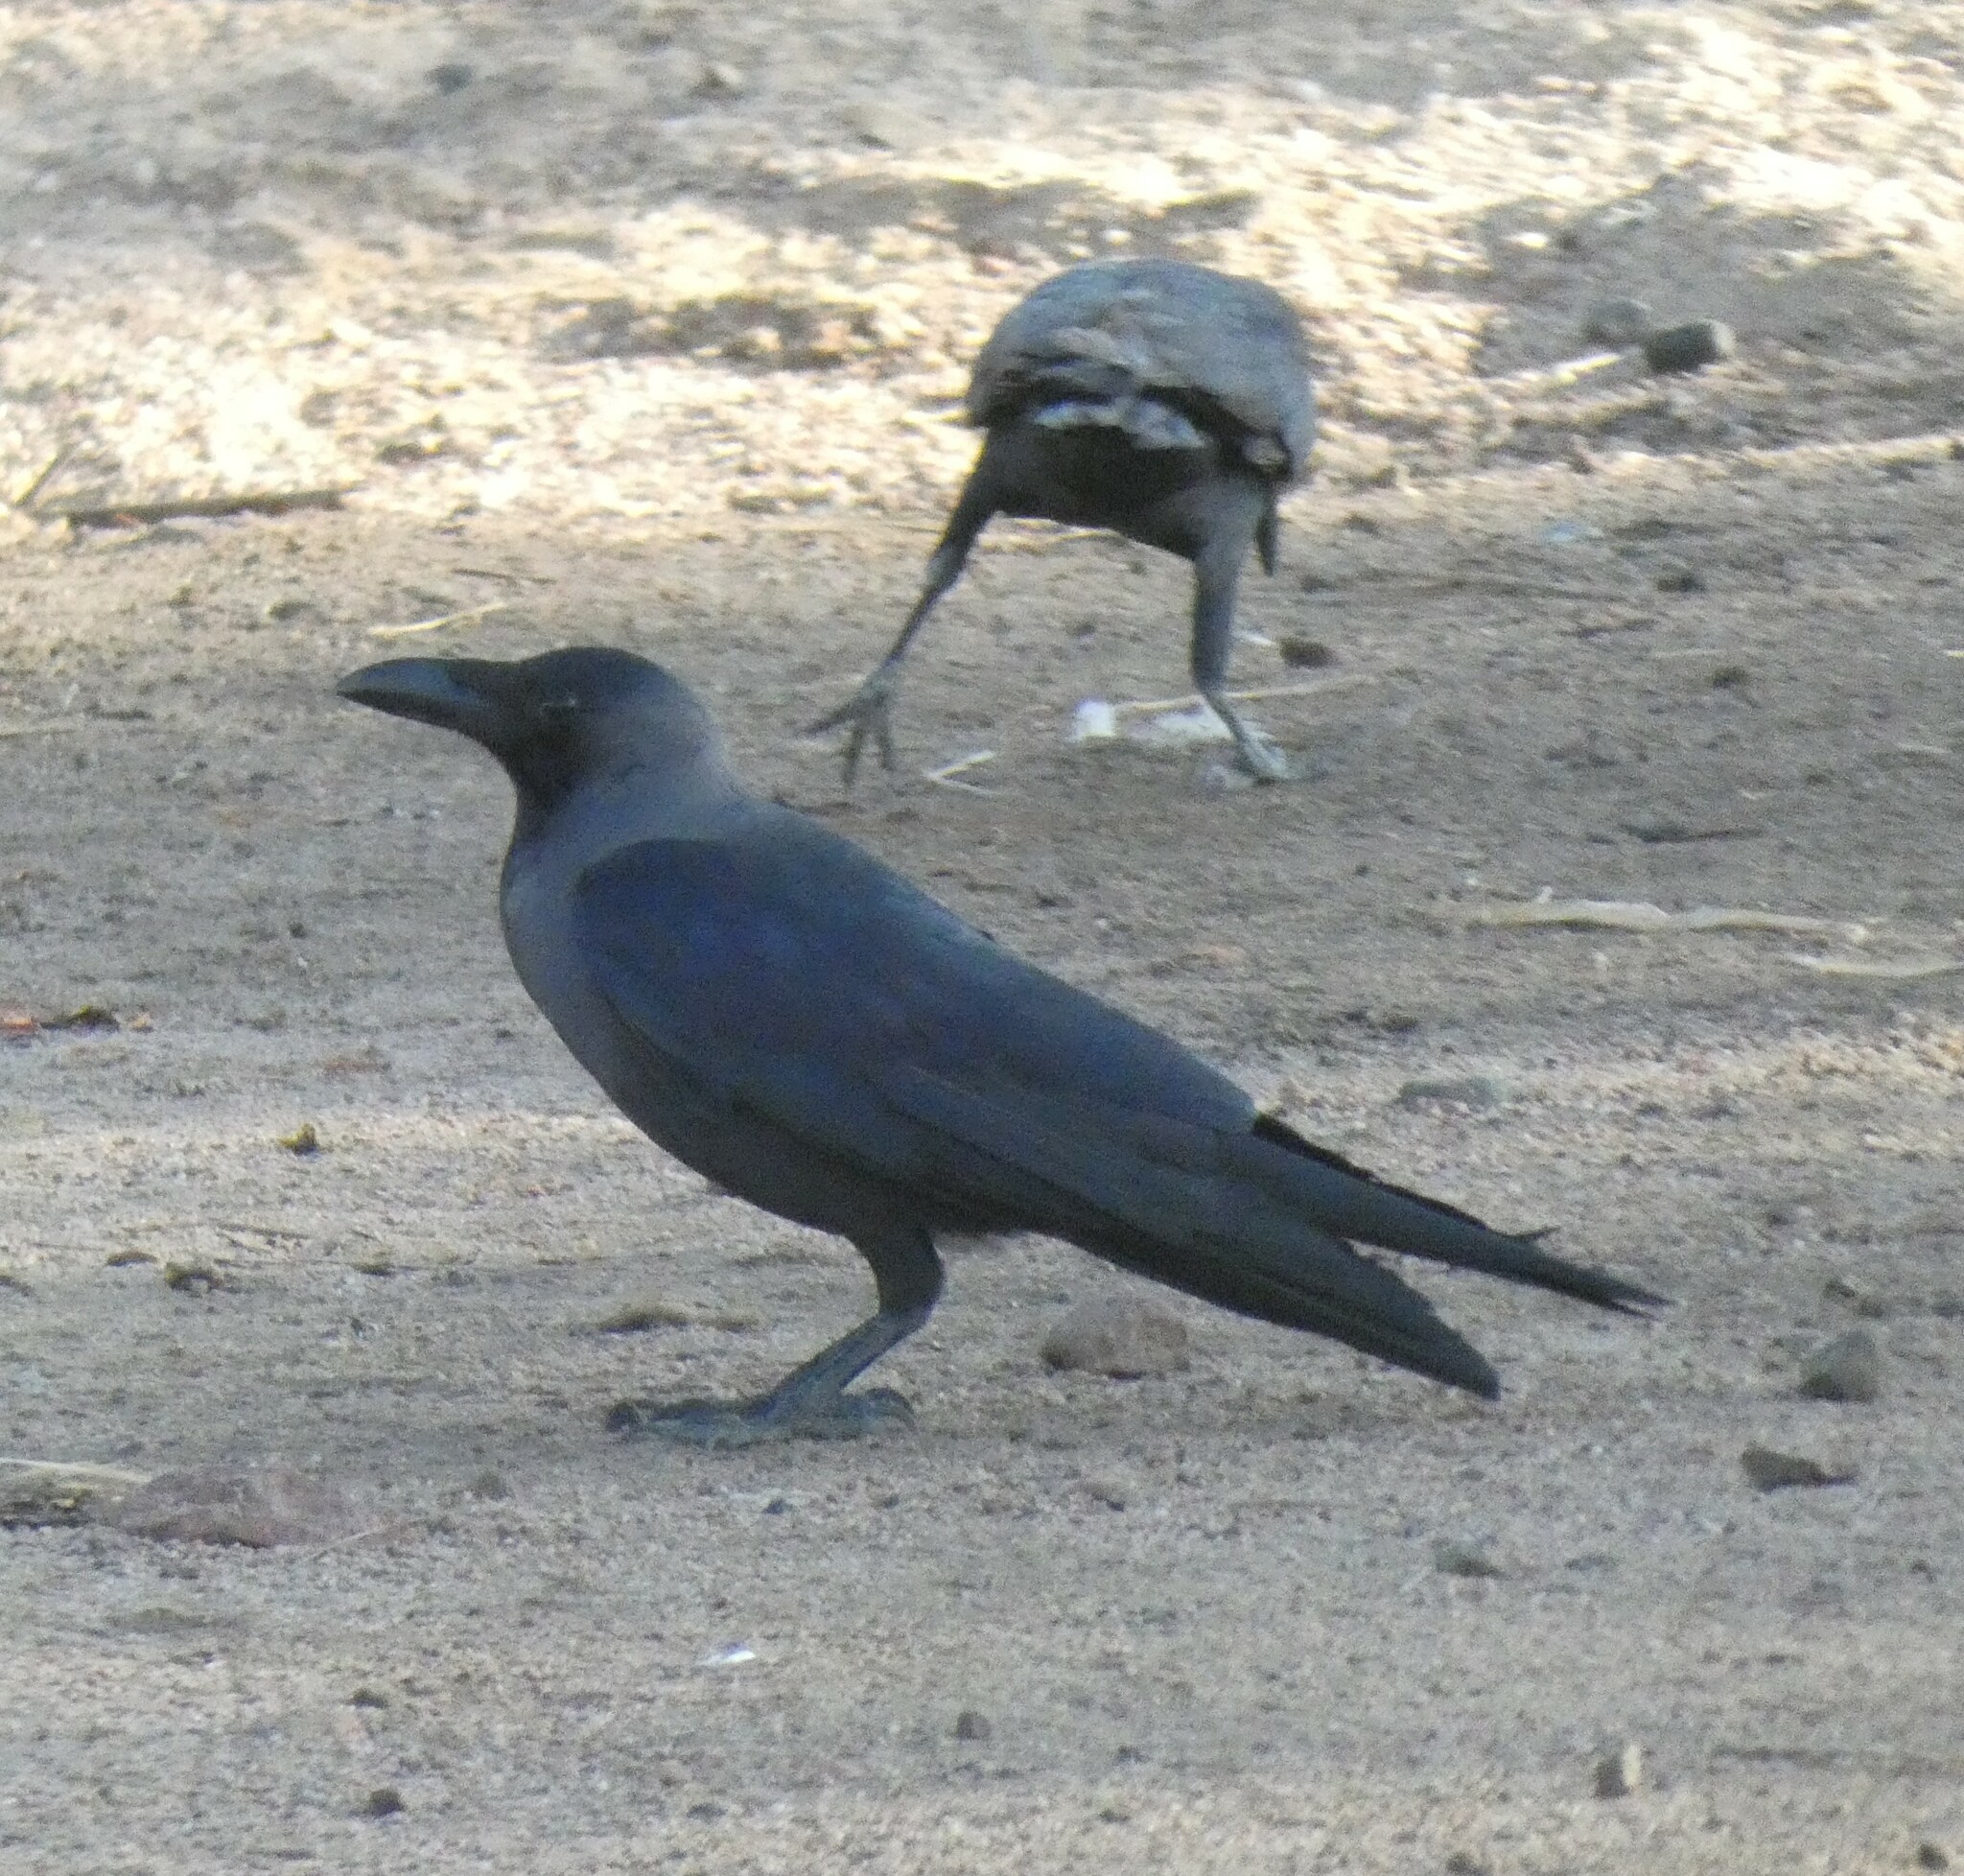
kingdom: Animalia
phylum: Chordata
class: Aves
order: Passeriformes
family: Corvidae
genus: Corvus
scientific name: Corvus splendens
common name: House crow
